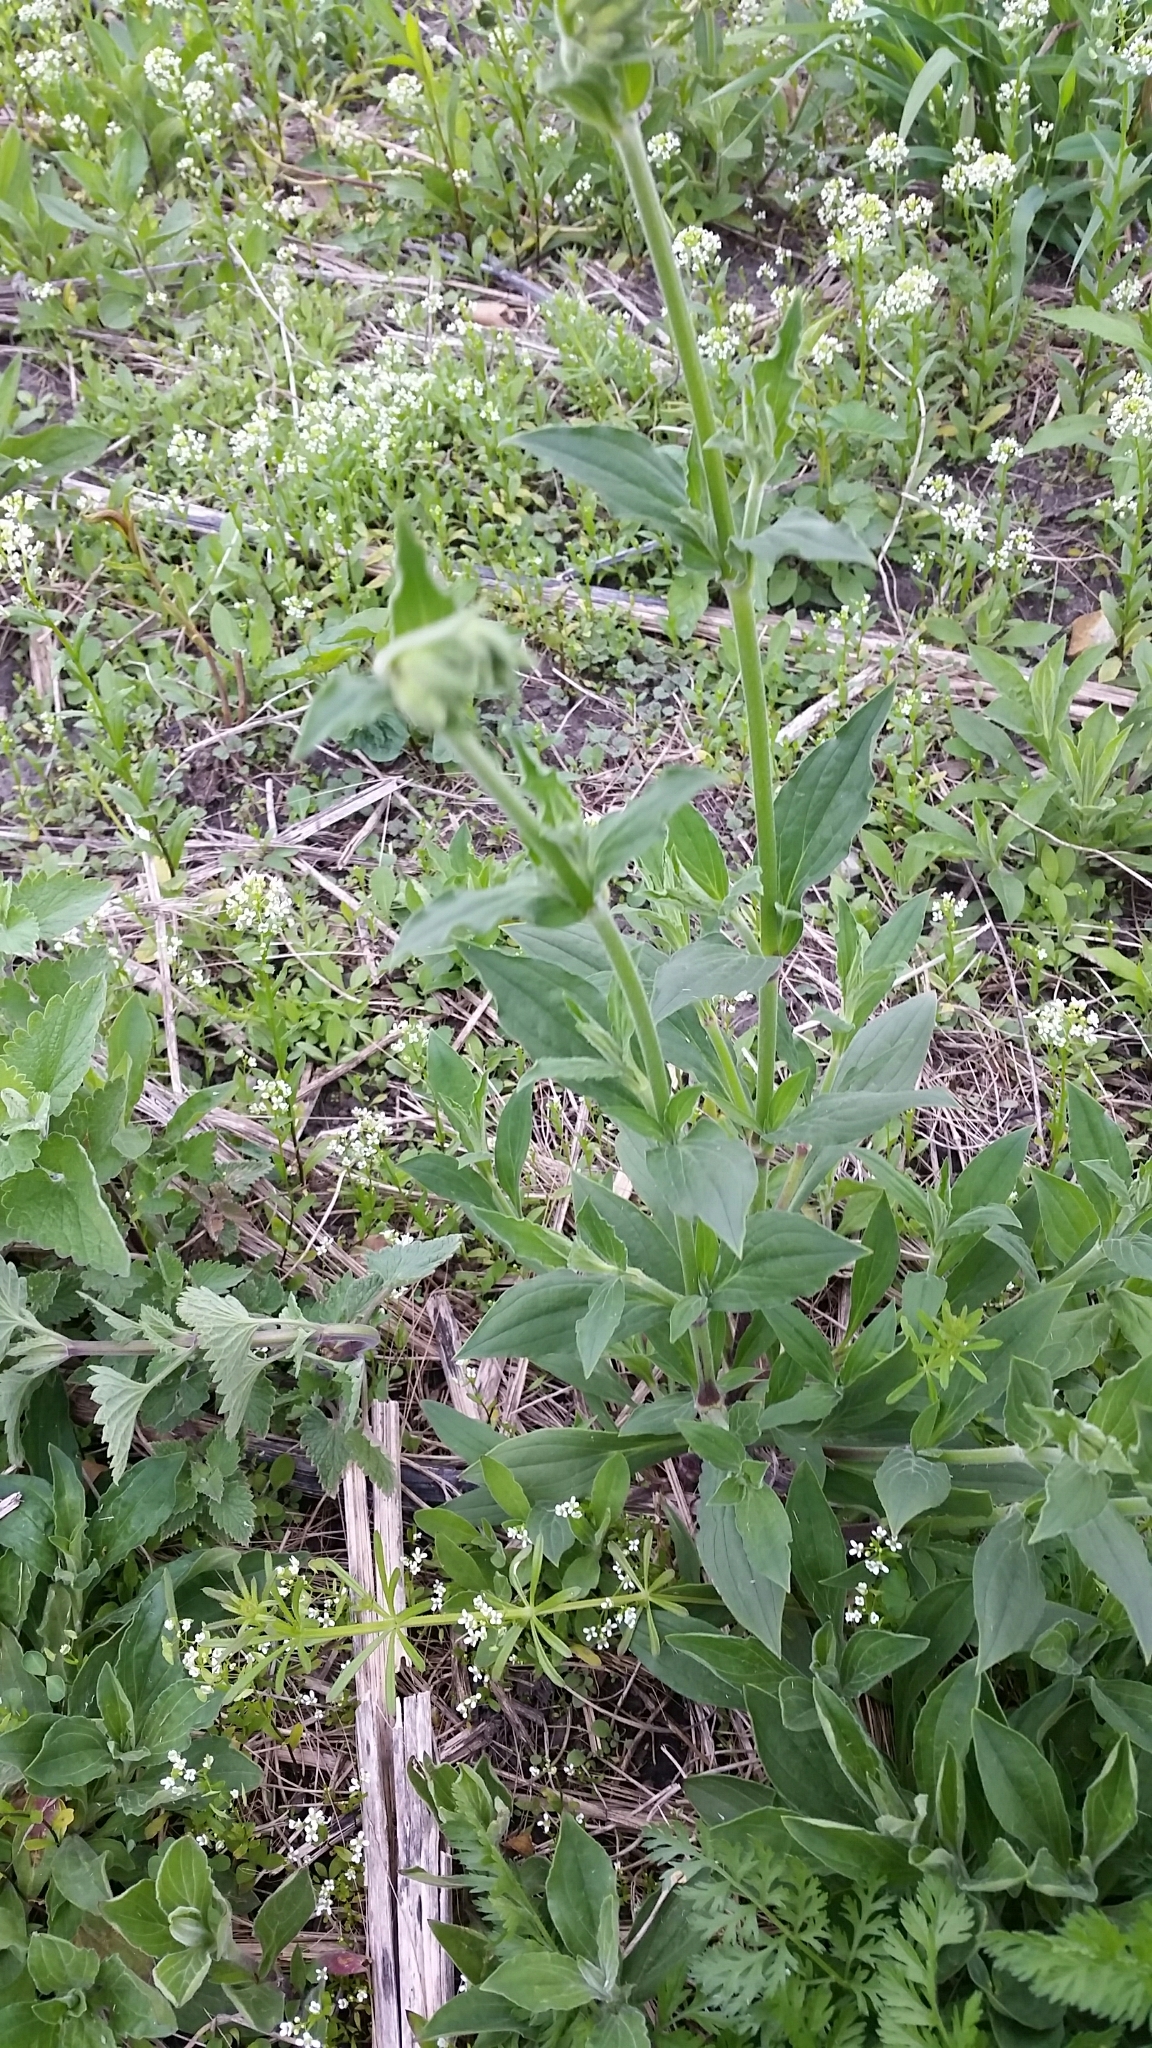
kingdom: Plantae
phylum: Tracheophyta
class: Magnoliopsida
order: Caryophyllales
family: Caryophyllaceae
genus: Silene
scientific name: Silene latifolia
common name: White campion
